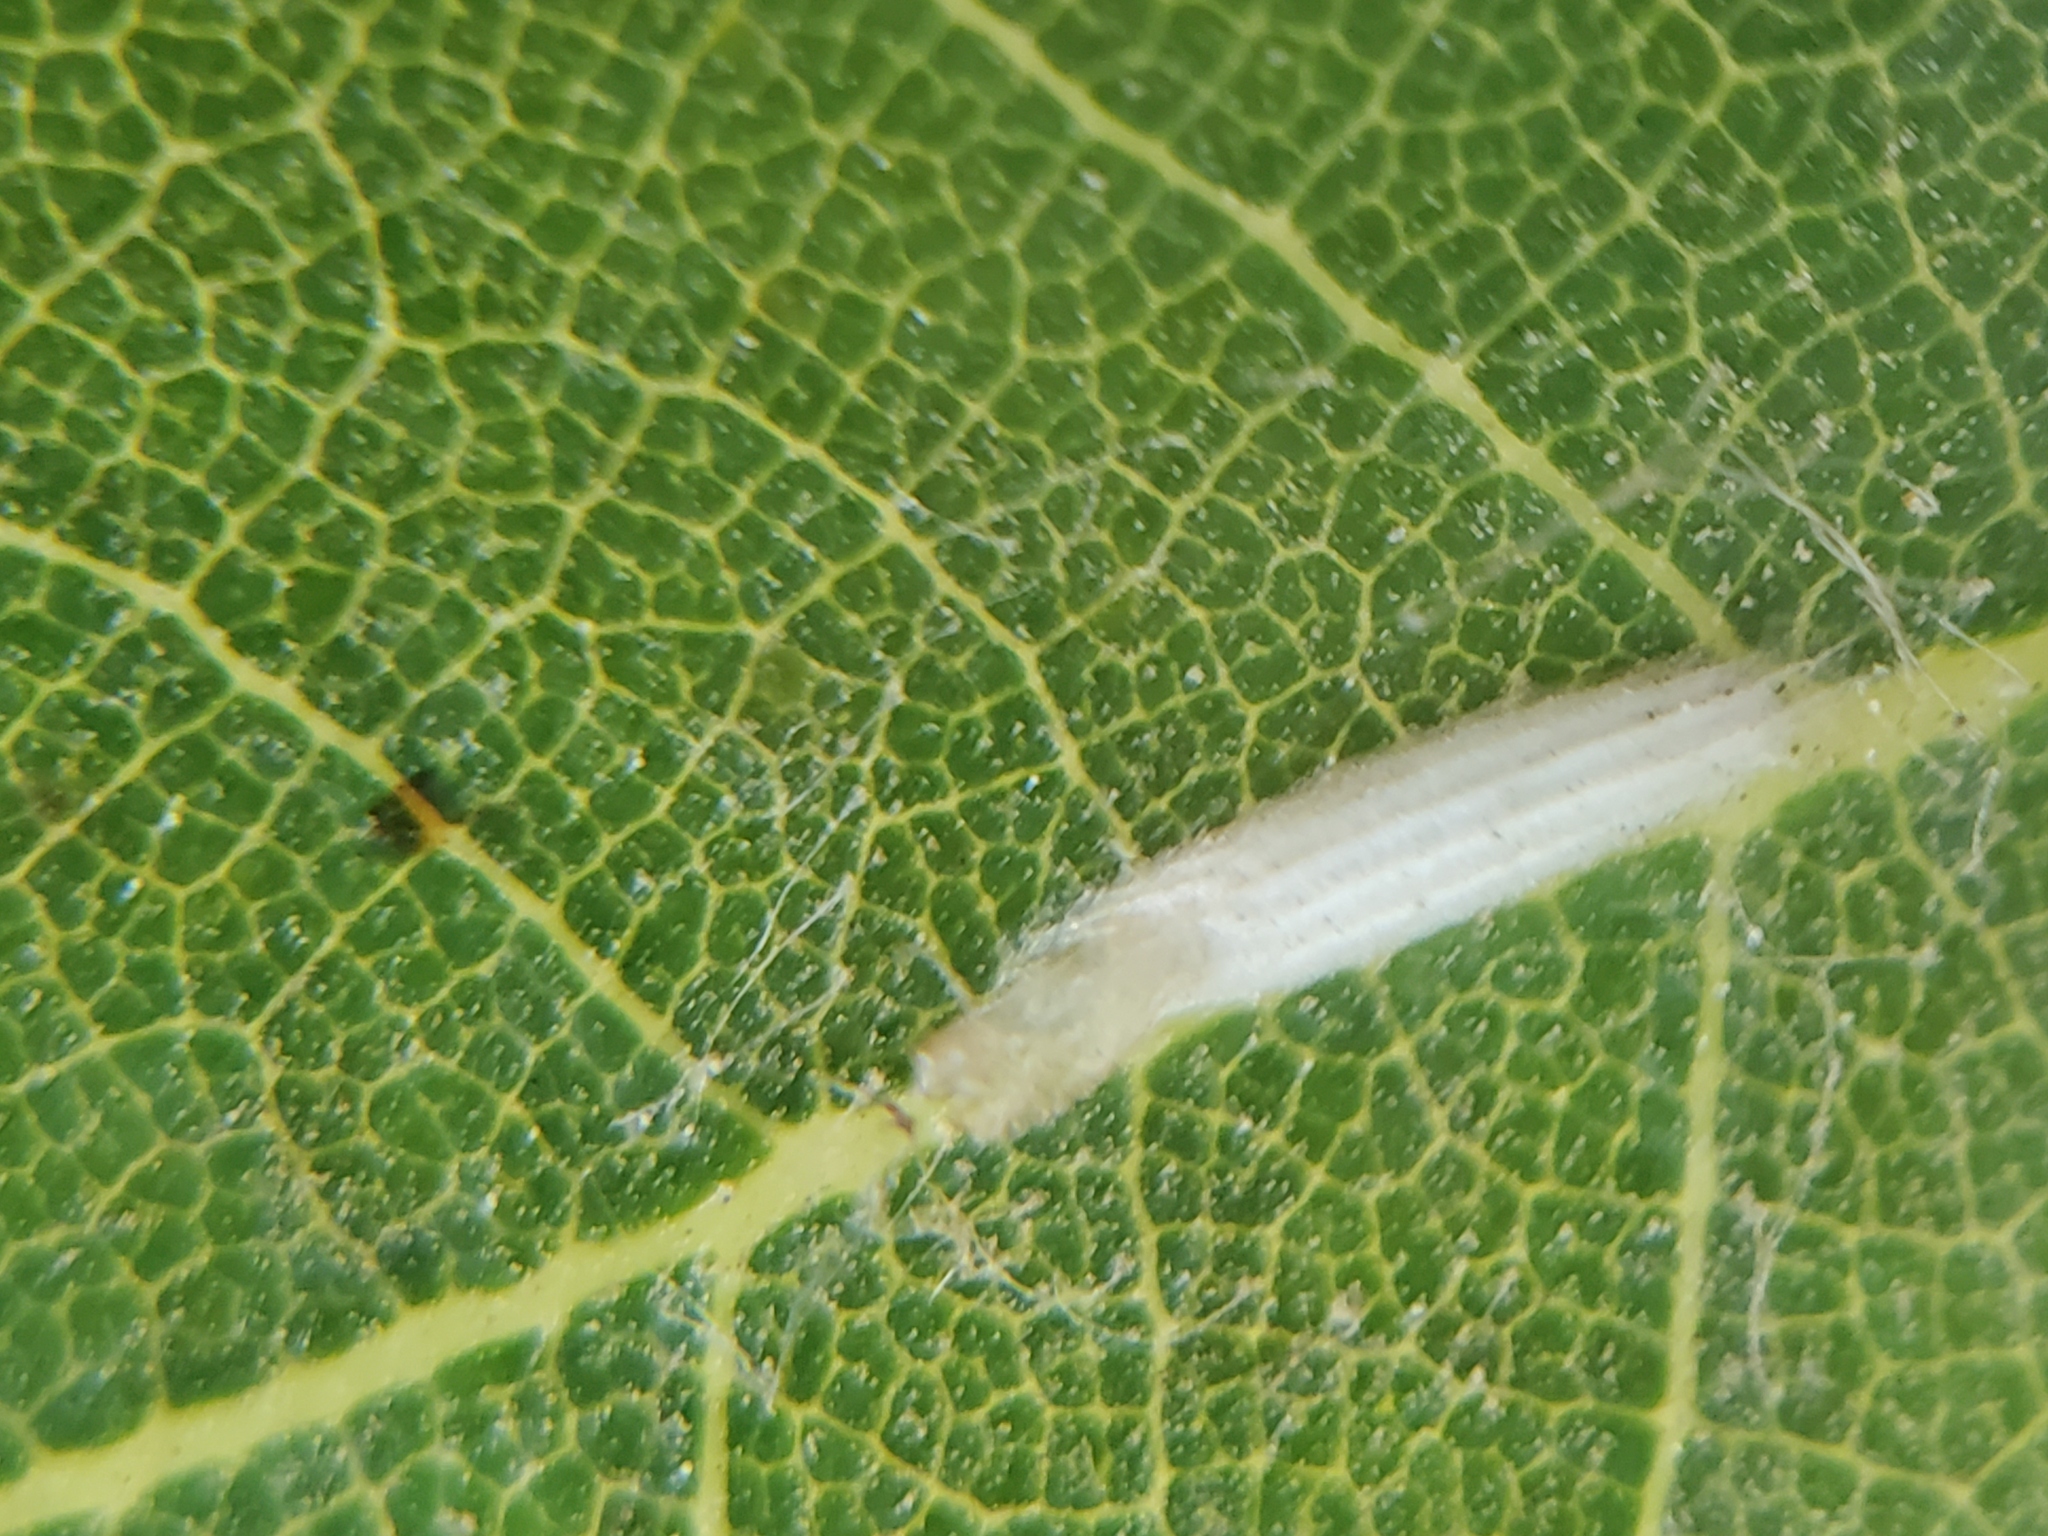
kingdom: Animalia
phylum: Arthropoda
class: Insecta
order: Lepidoptera
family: Bucculatricidae
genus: Bucculatrix
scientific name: Bucculatrix albertiella
